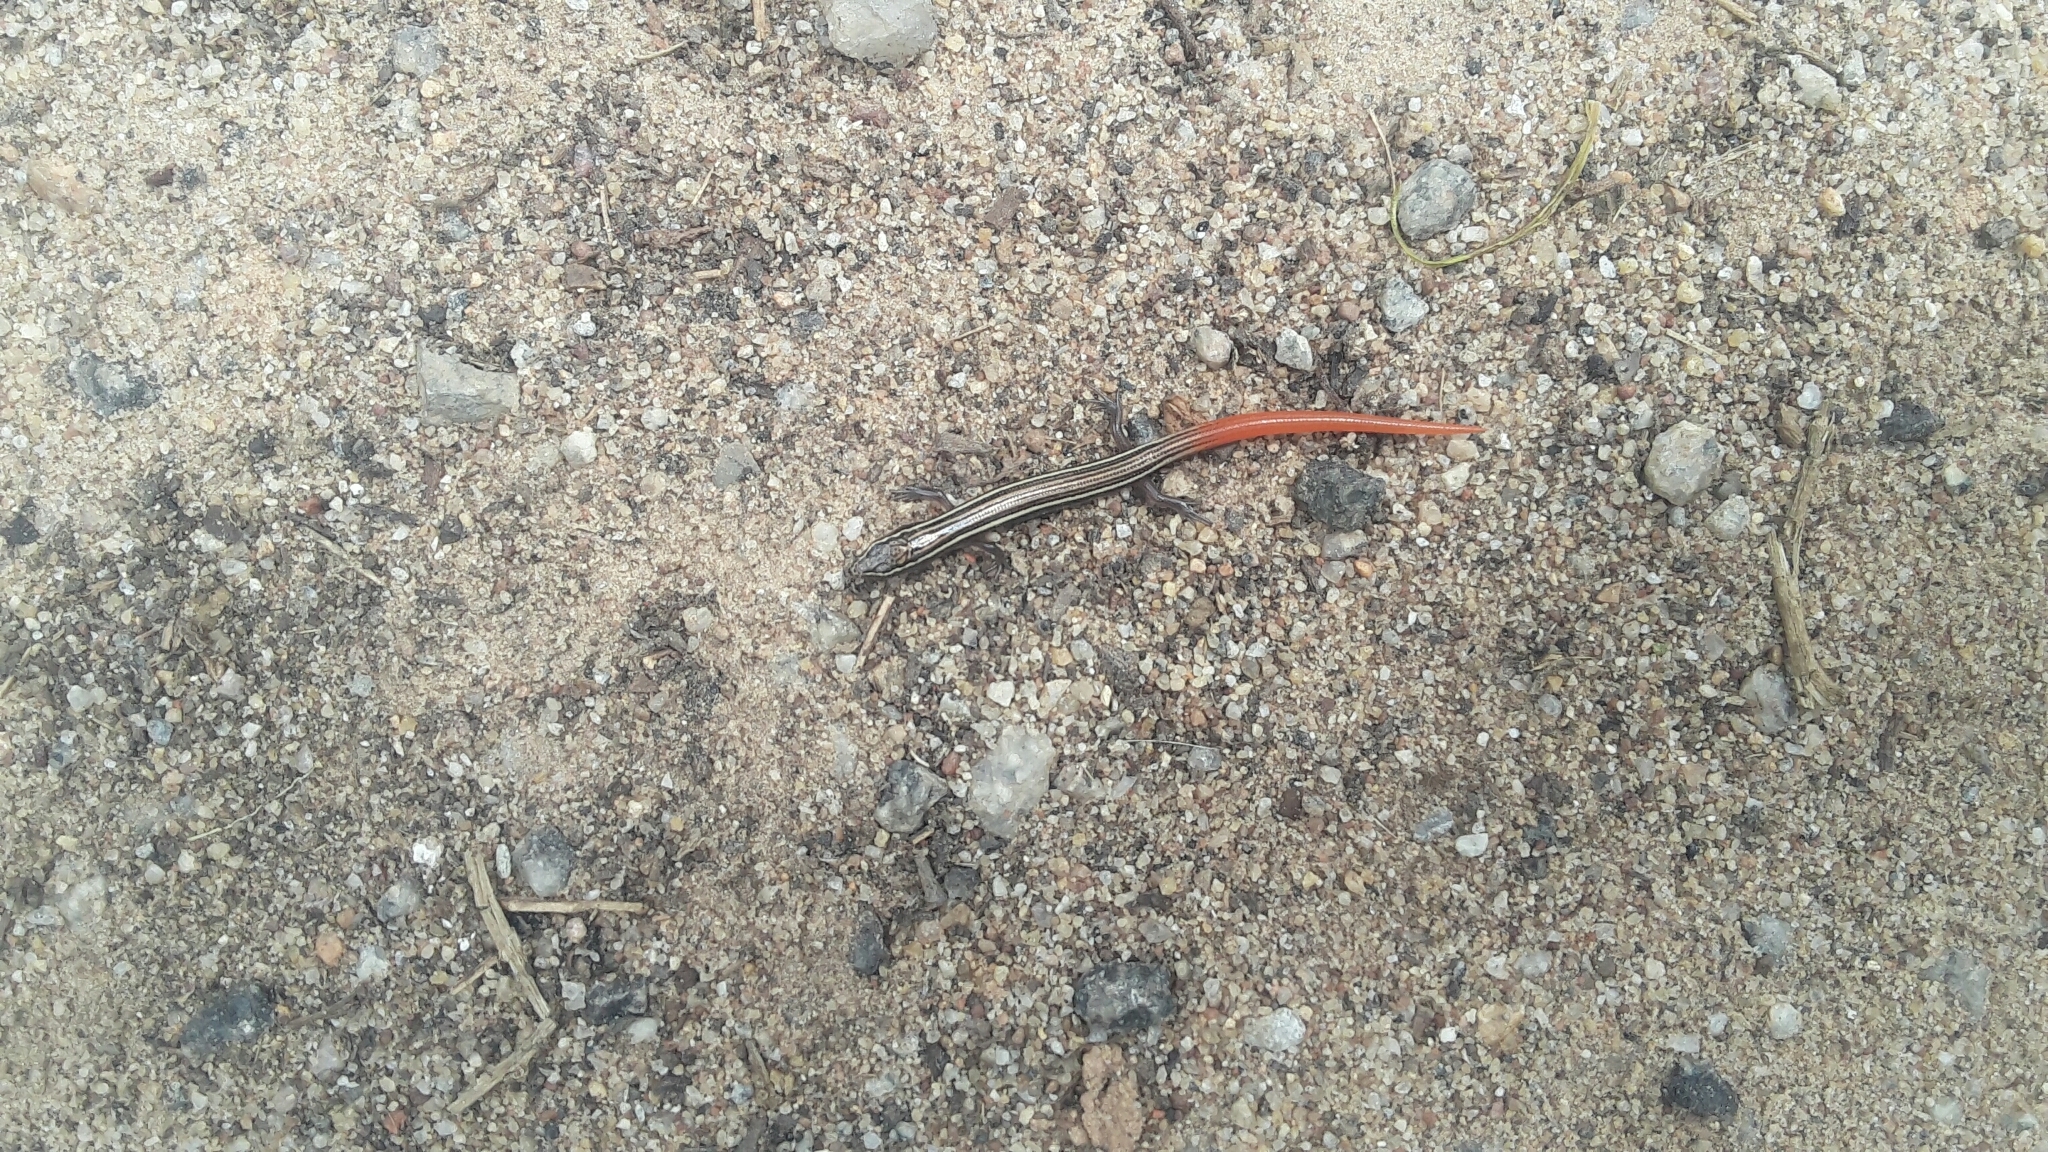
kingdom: Animalia
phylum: Chordata
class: Squamata
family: Scincidae
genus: Riopa
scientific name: Riopa punctata
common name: Common dotted garden skink
